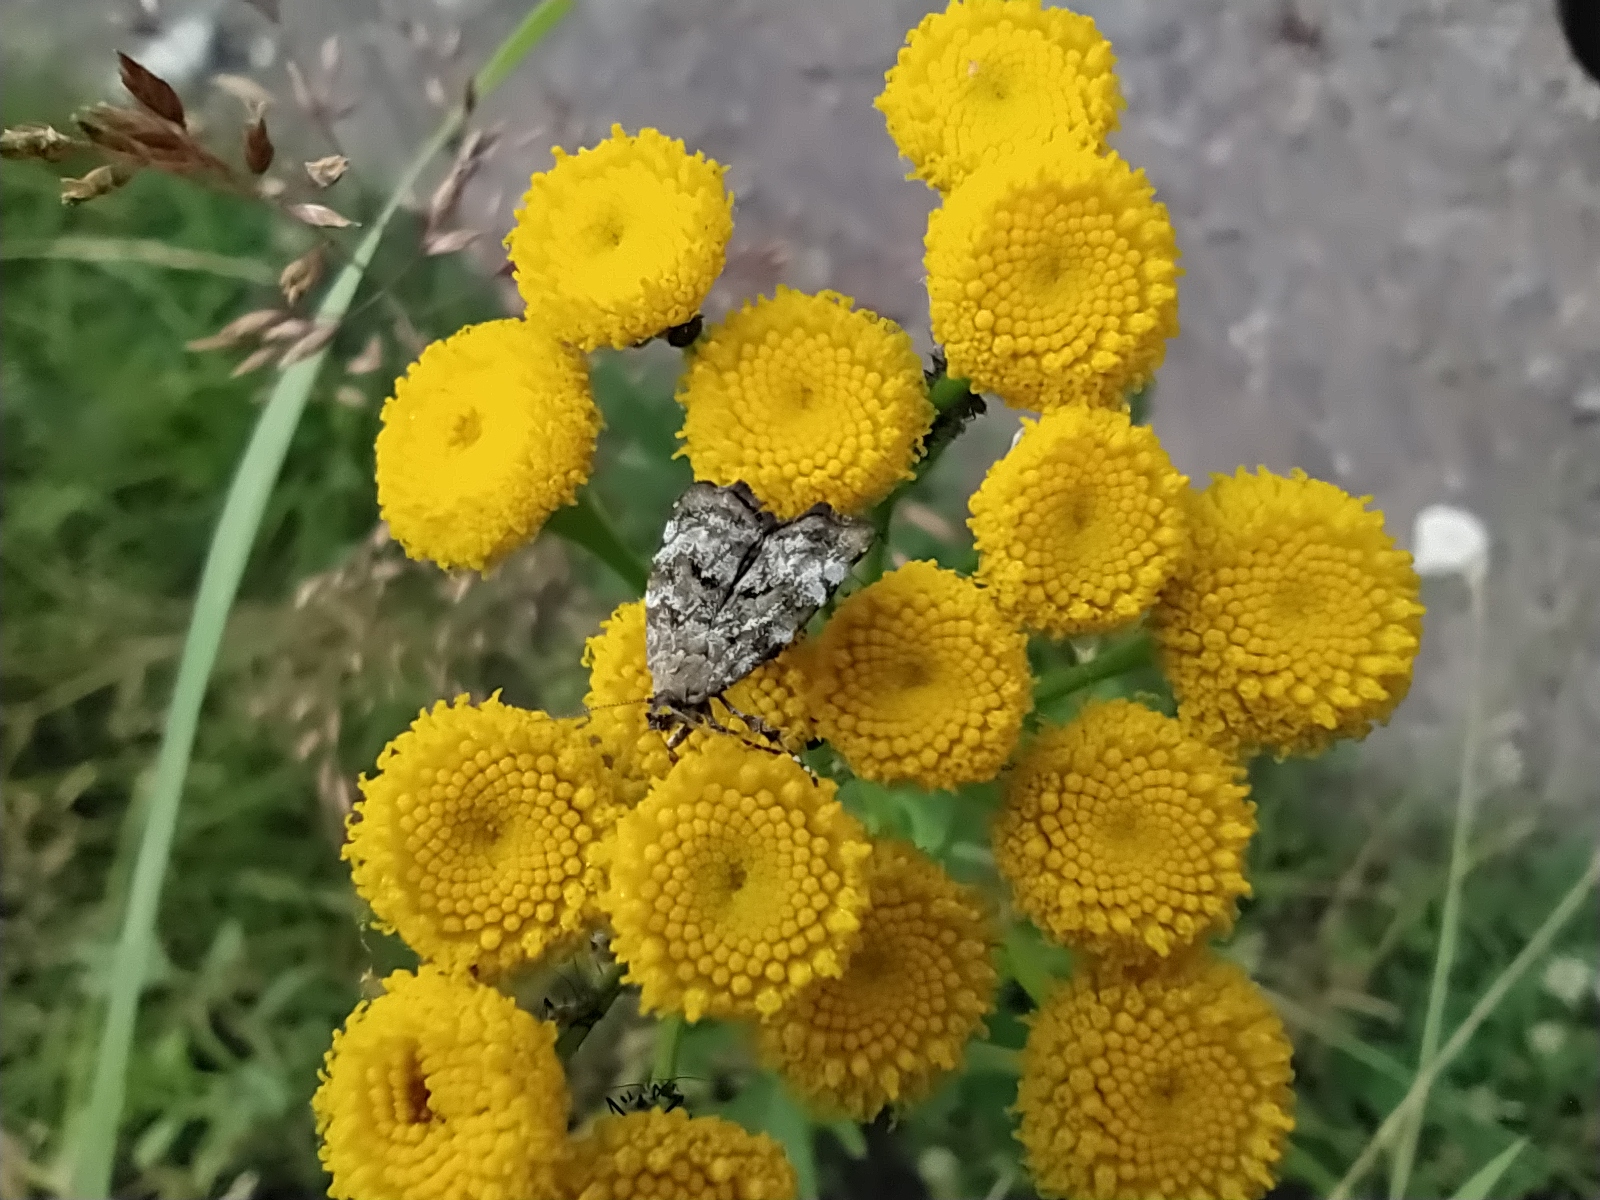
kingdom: Animalia
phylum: Arthropoda
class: Insecta
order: Lepidoptera
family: Choreutidae
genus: Choreutis
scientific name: Choreutis diana
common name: Inverness twitcher
